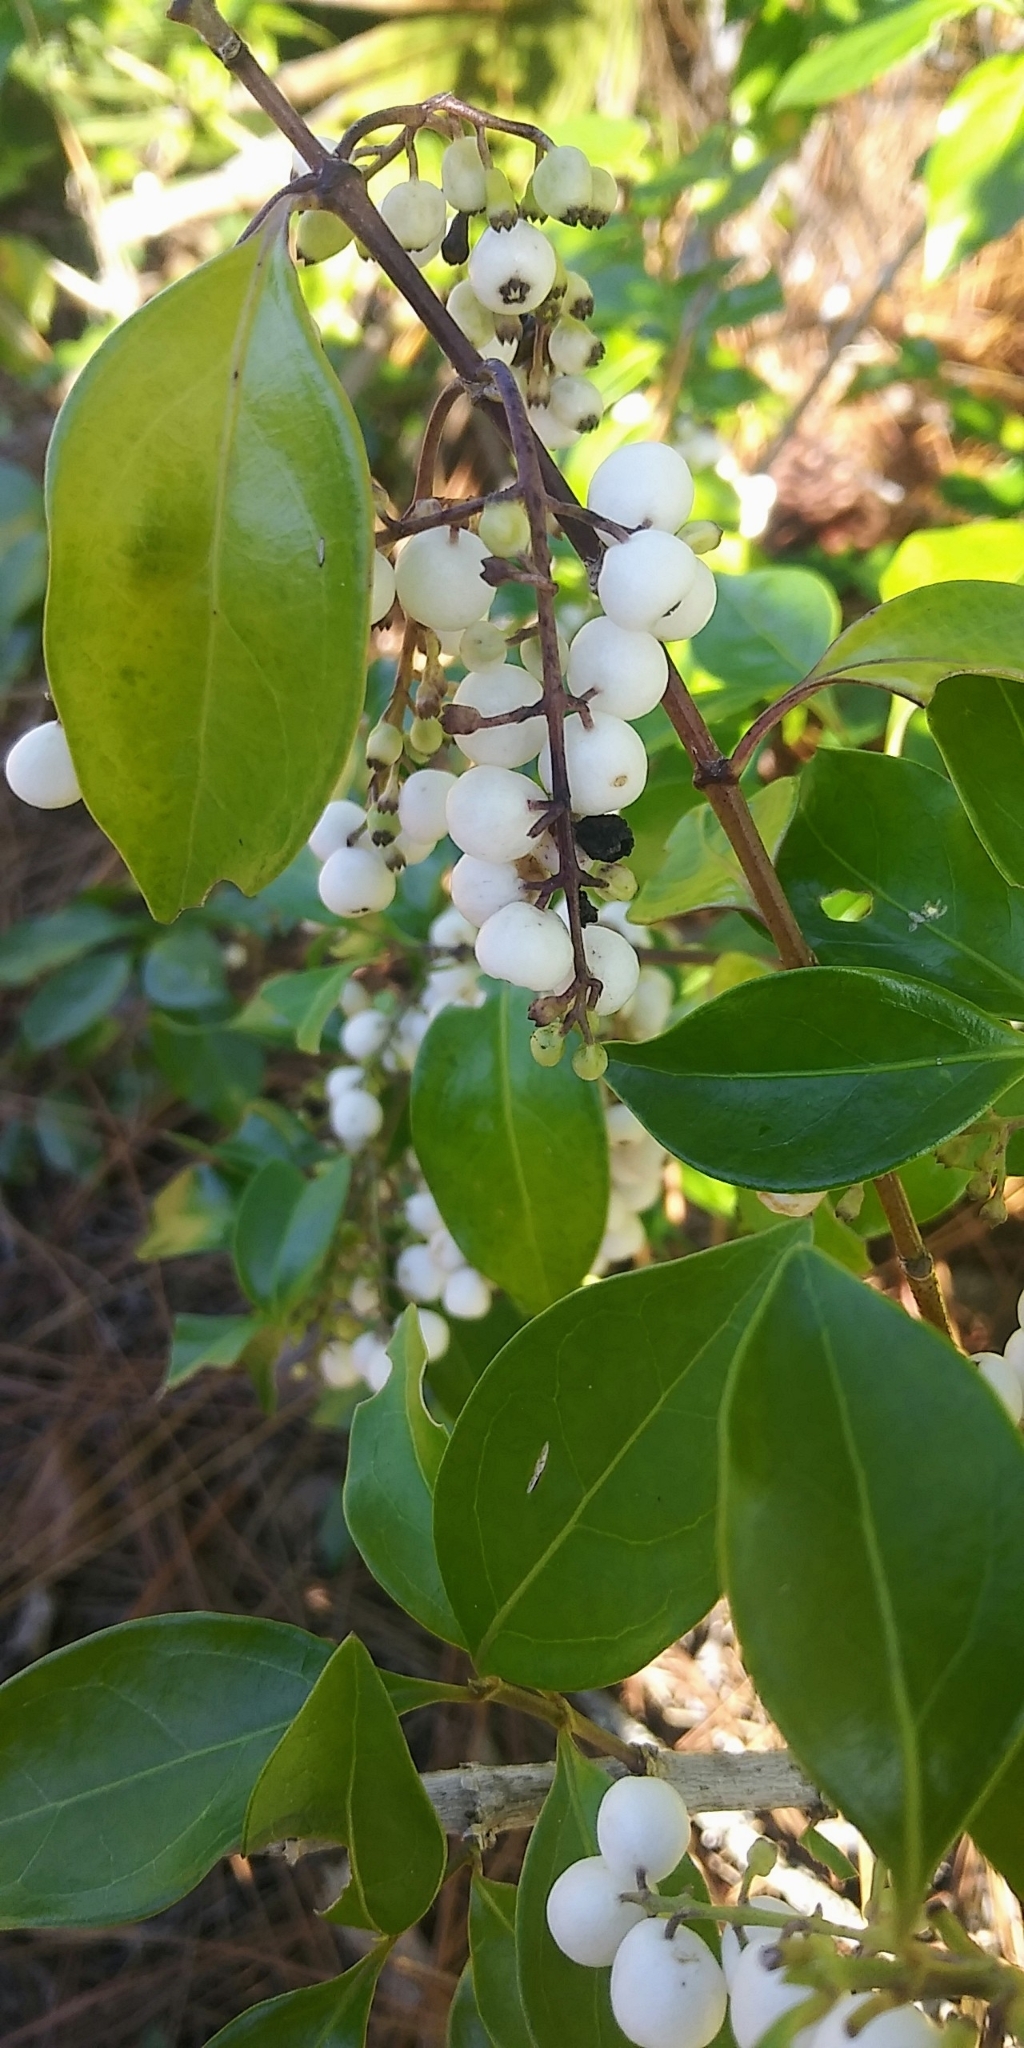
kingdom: Plantae
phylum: Tracheophyta
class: Magnoliopsida
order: Gentianales
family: Rubiaceae
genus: Chiococca
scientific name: Chiococca alba
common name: Snowberry
